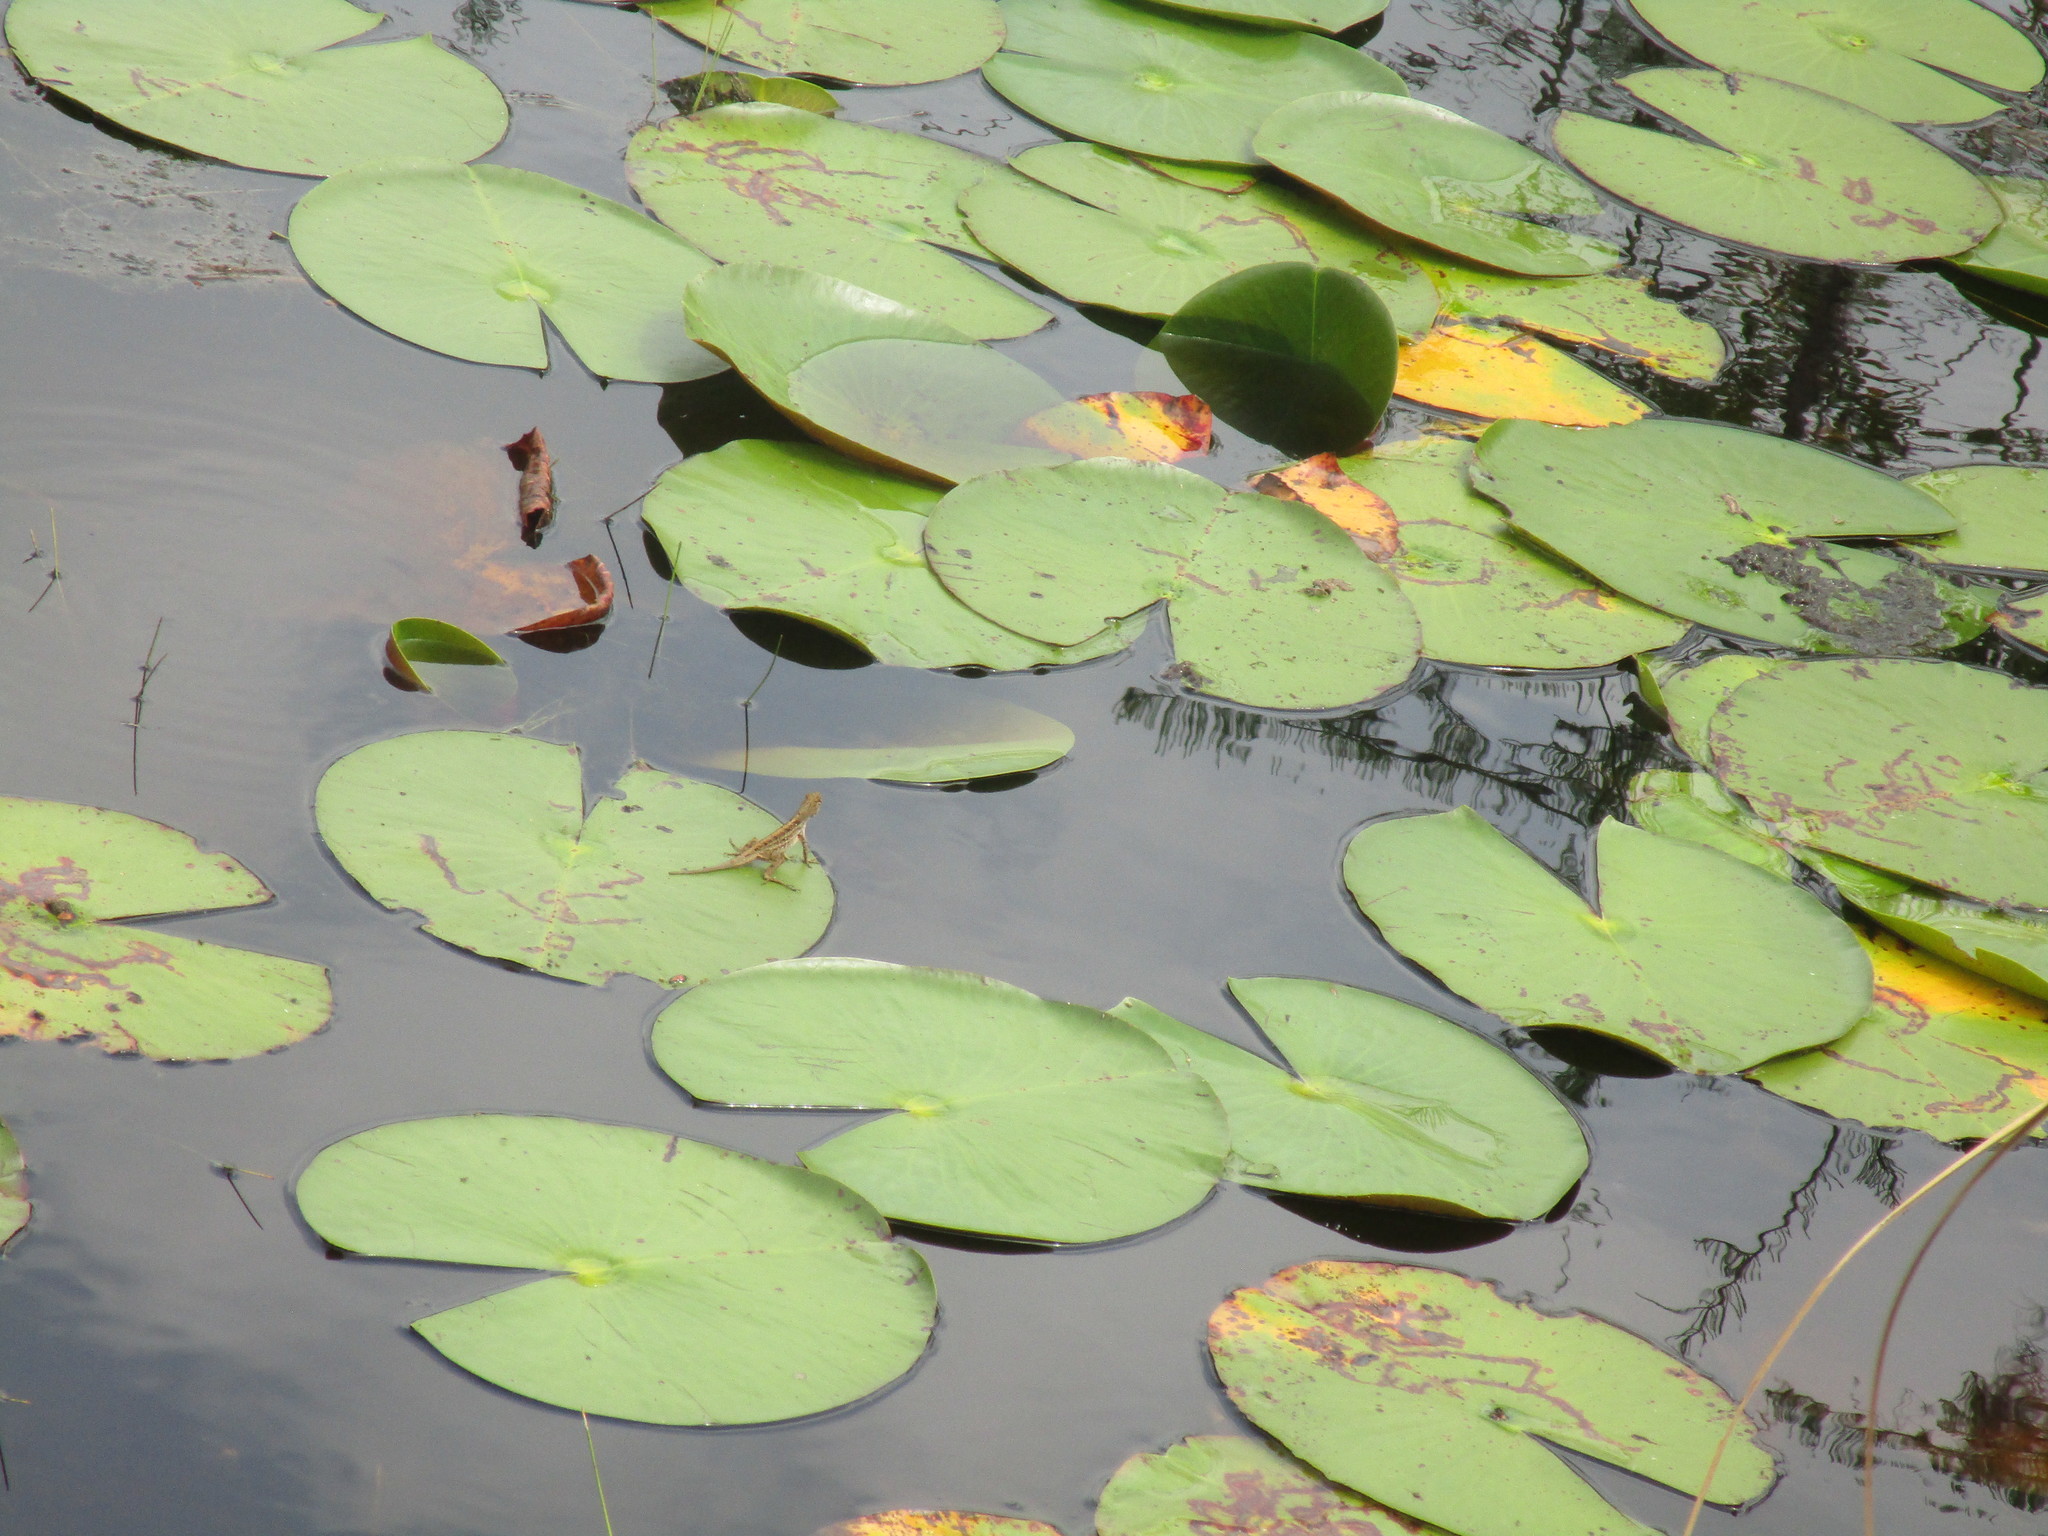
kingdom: Animalia
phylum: Chordata
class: Squamata
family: Dactyloidae
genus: Anolis
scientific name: Anolis sagrei
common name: Brown anole
